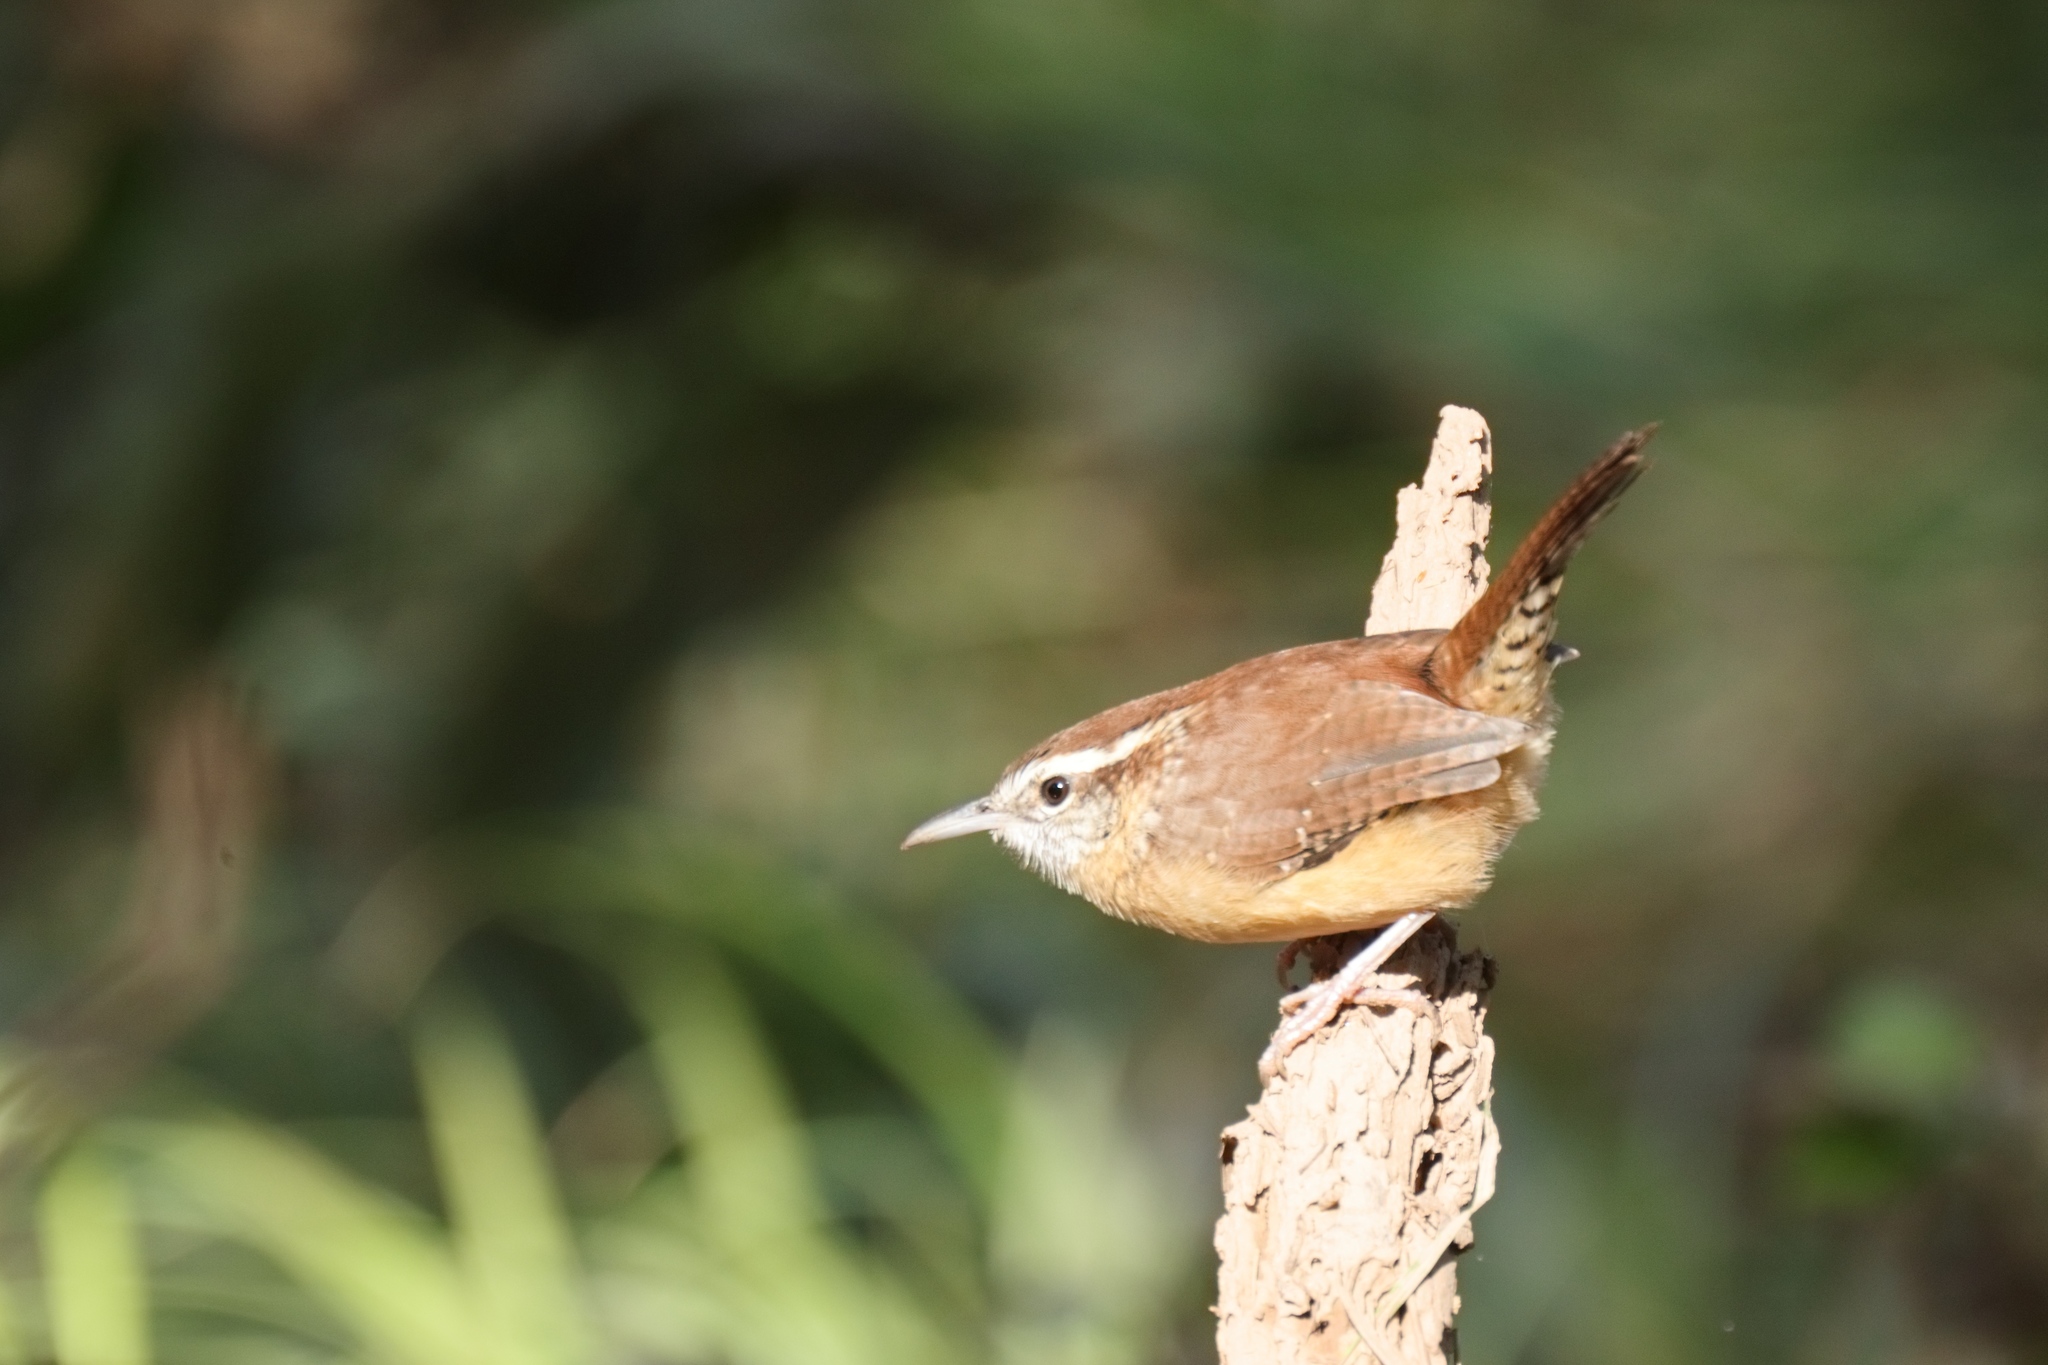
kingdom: Animalia
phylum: Chordata
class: Aves
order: Passeriformes
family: Troglodytidae
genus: Thryothorus
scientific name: Thryothorus ludovicianus
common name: Carolina wren
